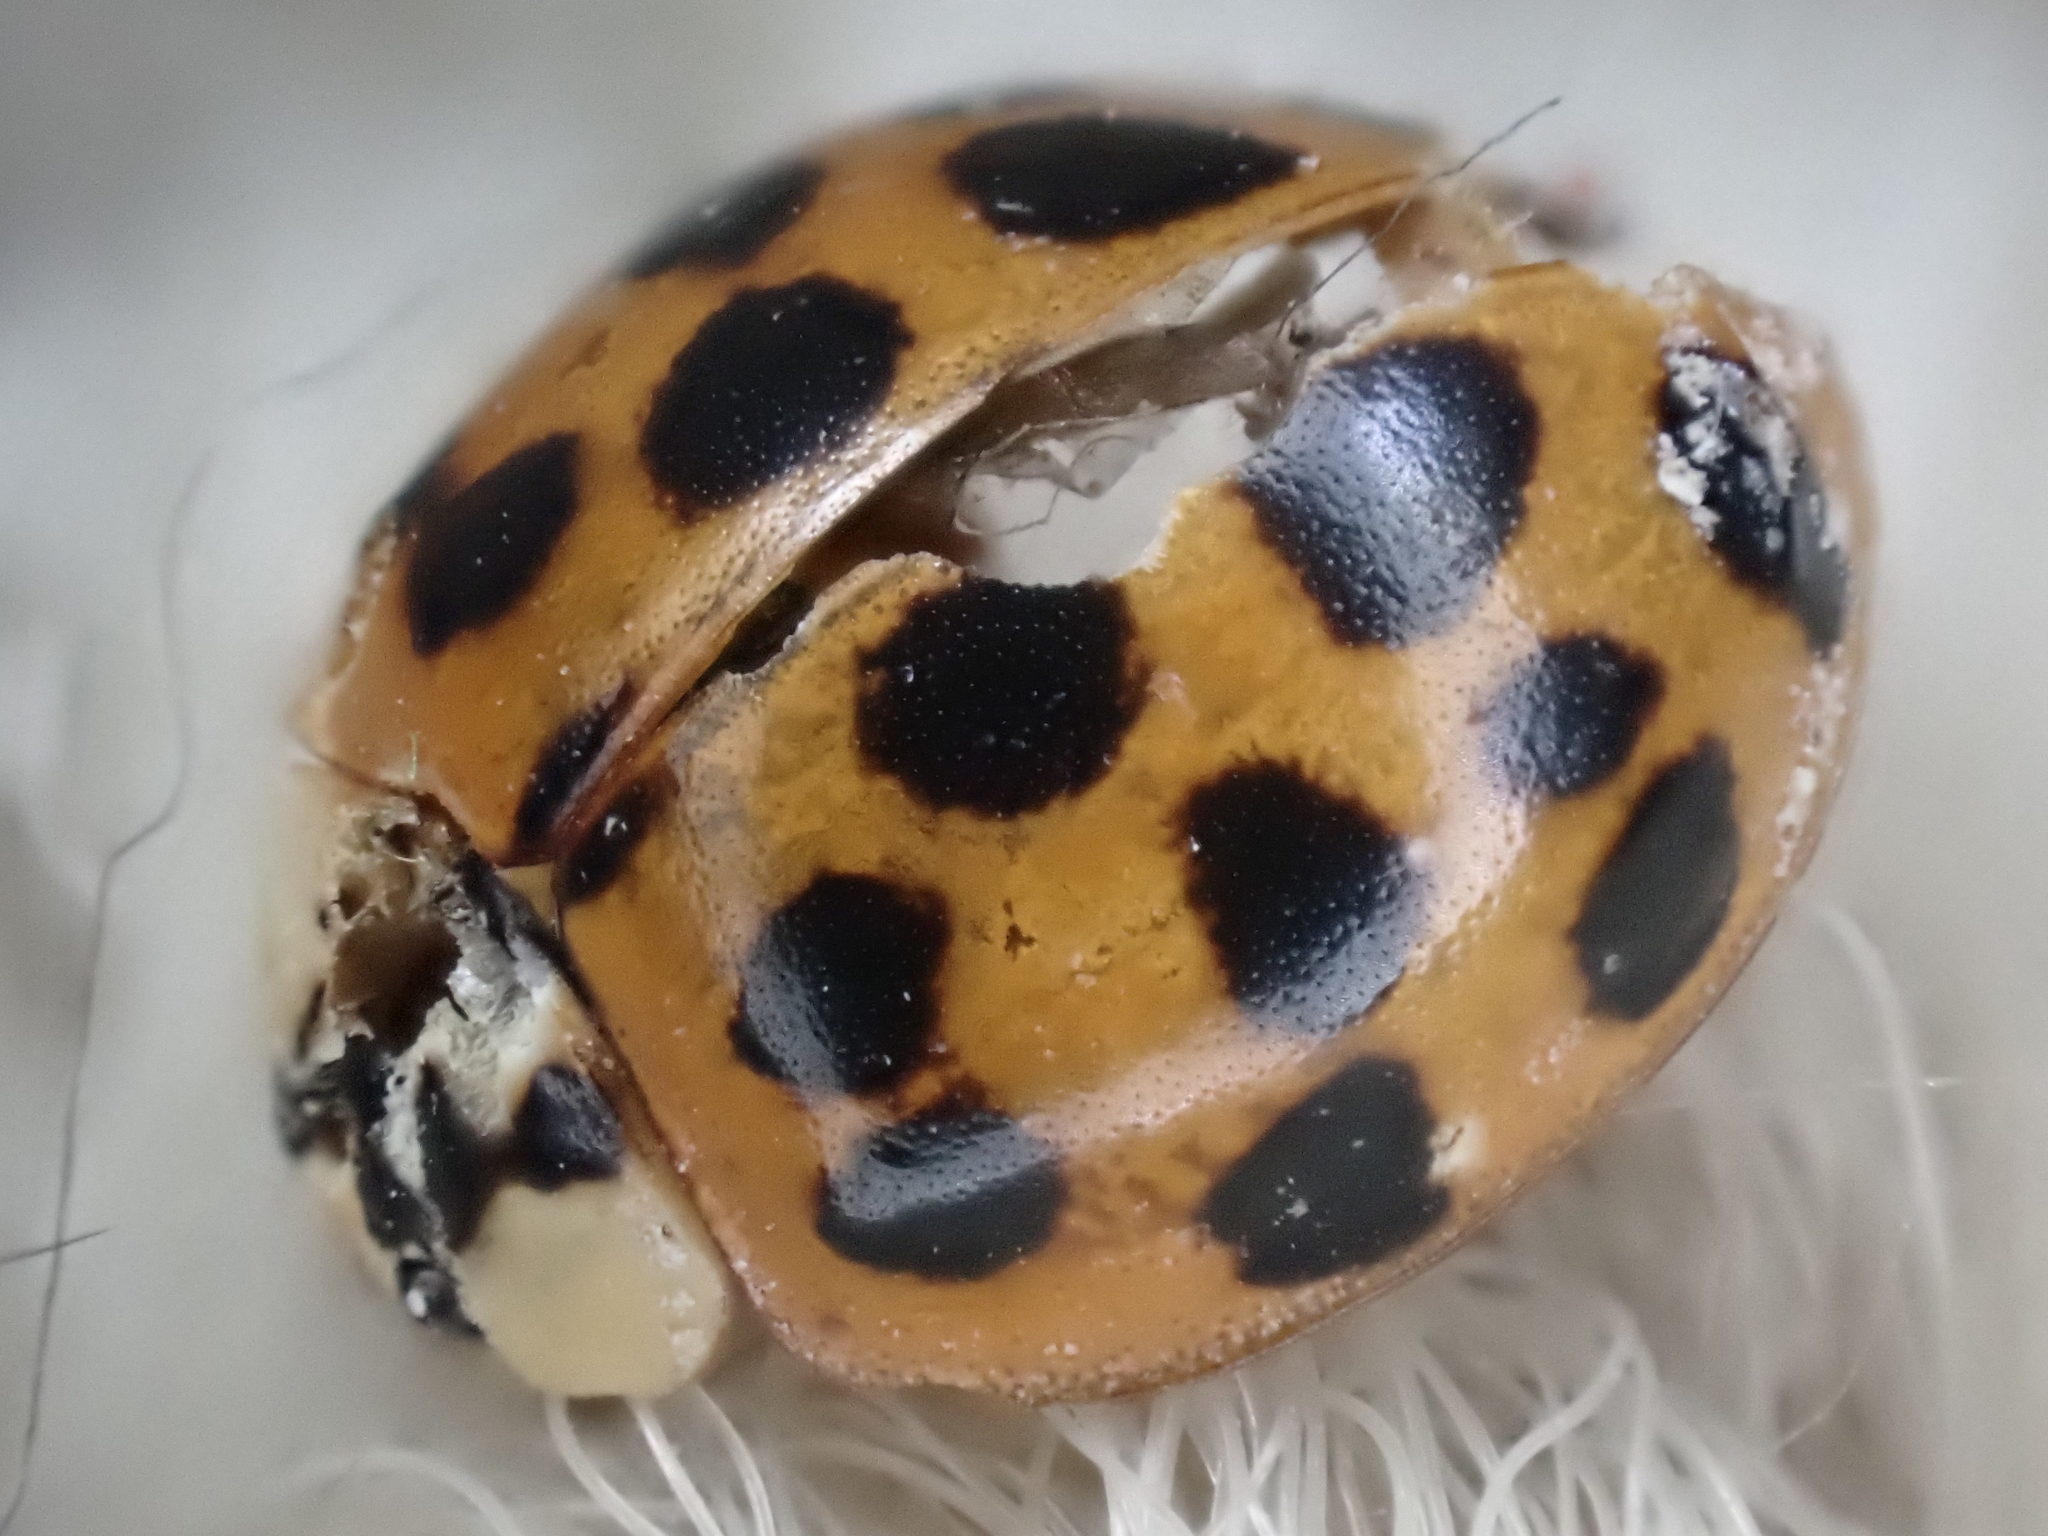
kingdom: Animalia
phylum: Arthropoda
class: Insecta
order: Coleoptera
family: Coccinellidae
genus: Harmonia
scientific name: Harmonia axyridis
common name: Harlequin ladybird
